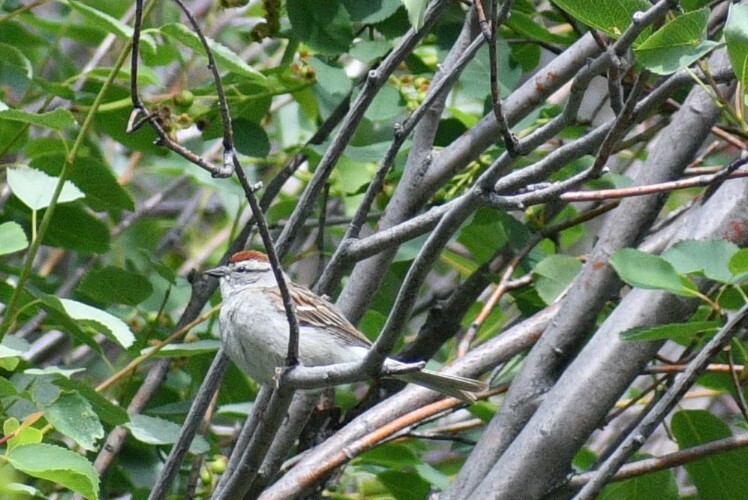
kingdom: Animalia
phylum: Chordata
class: Aves
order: Passeriformes
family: Passerellidae
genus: Spizella
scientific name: Spizella passerina
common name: Chipping sparrow
